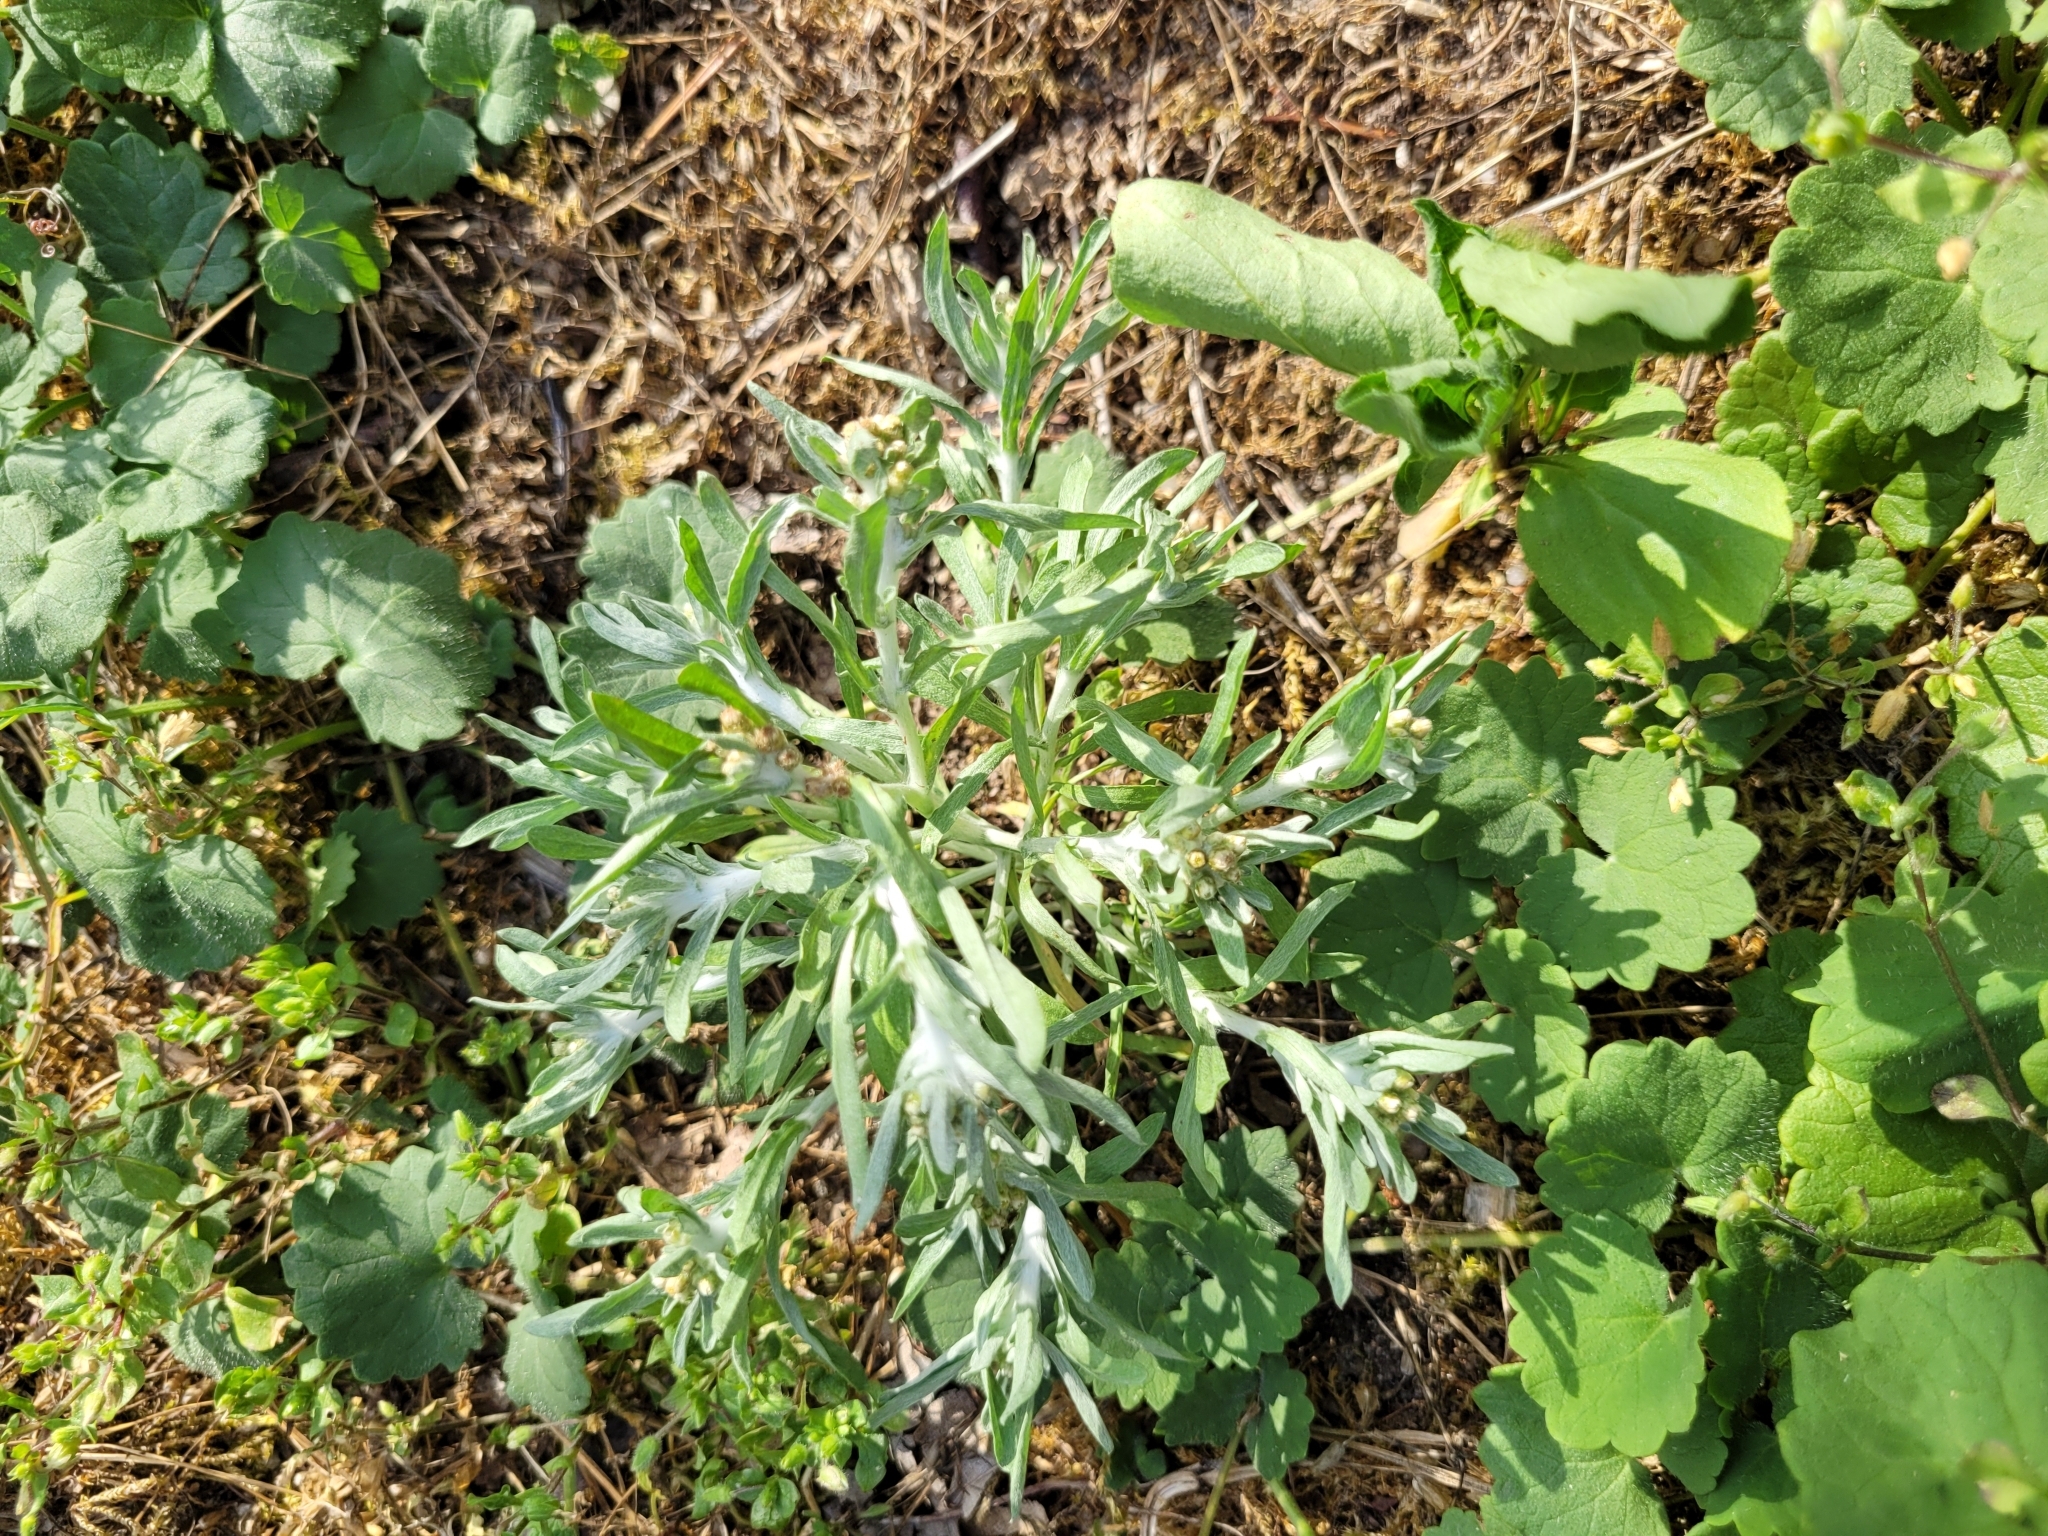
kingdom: Plantae
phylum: Tracheophyta
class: Magnoliopsida
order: Asterales
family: Asteraceae
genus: Gnaphalium
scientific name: Gnaphalium uliginosum
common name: Marsh cudweed
